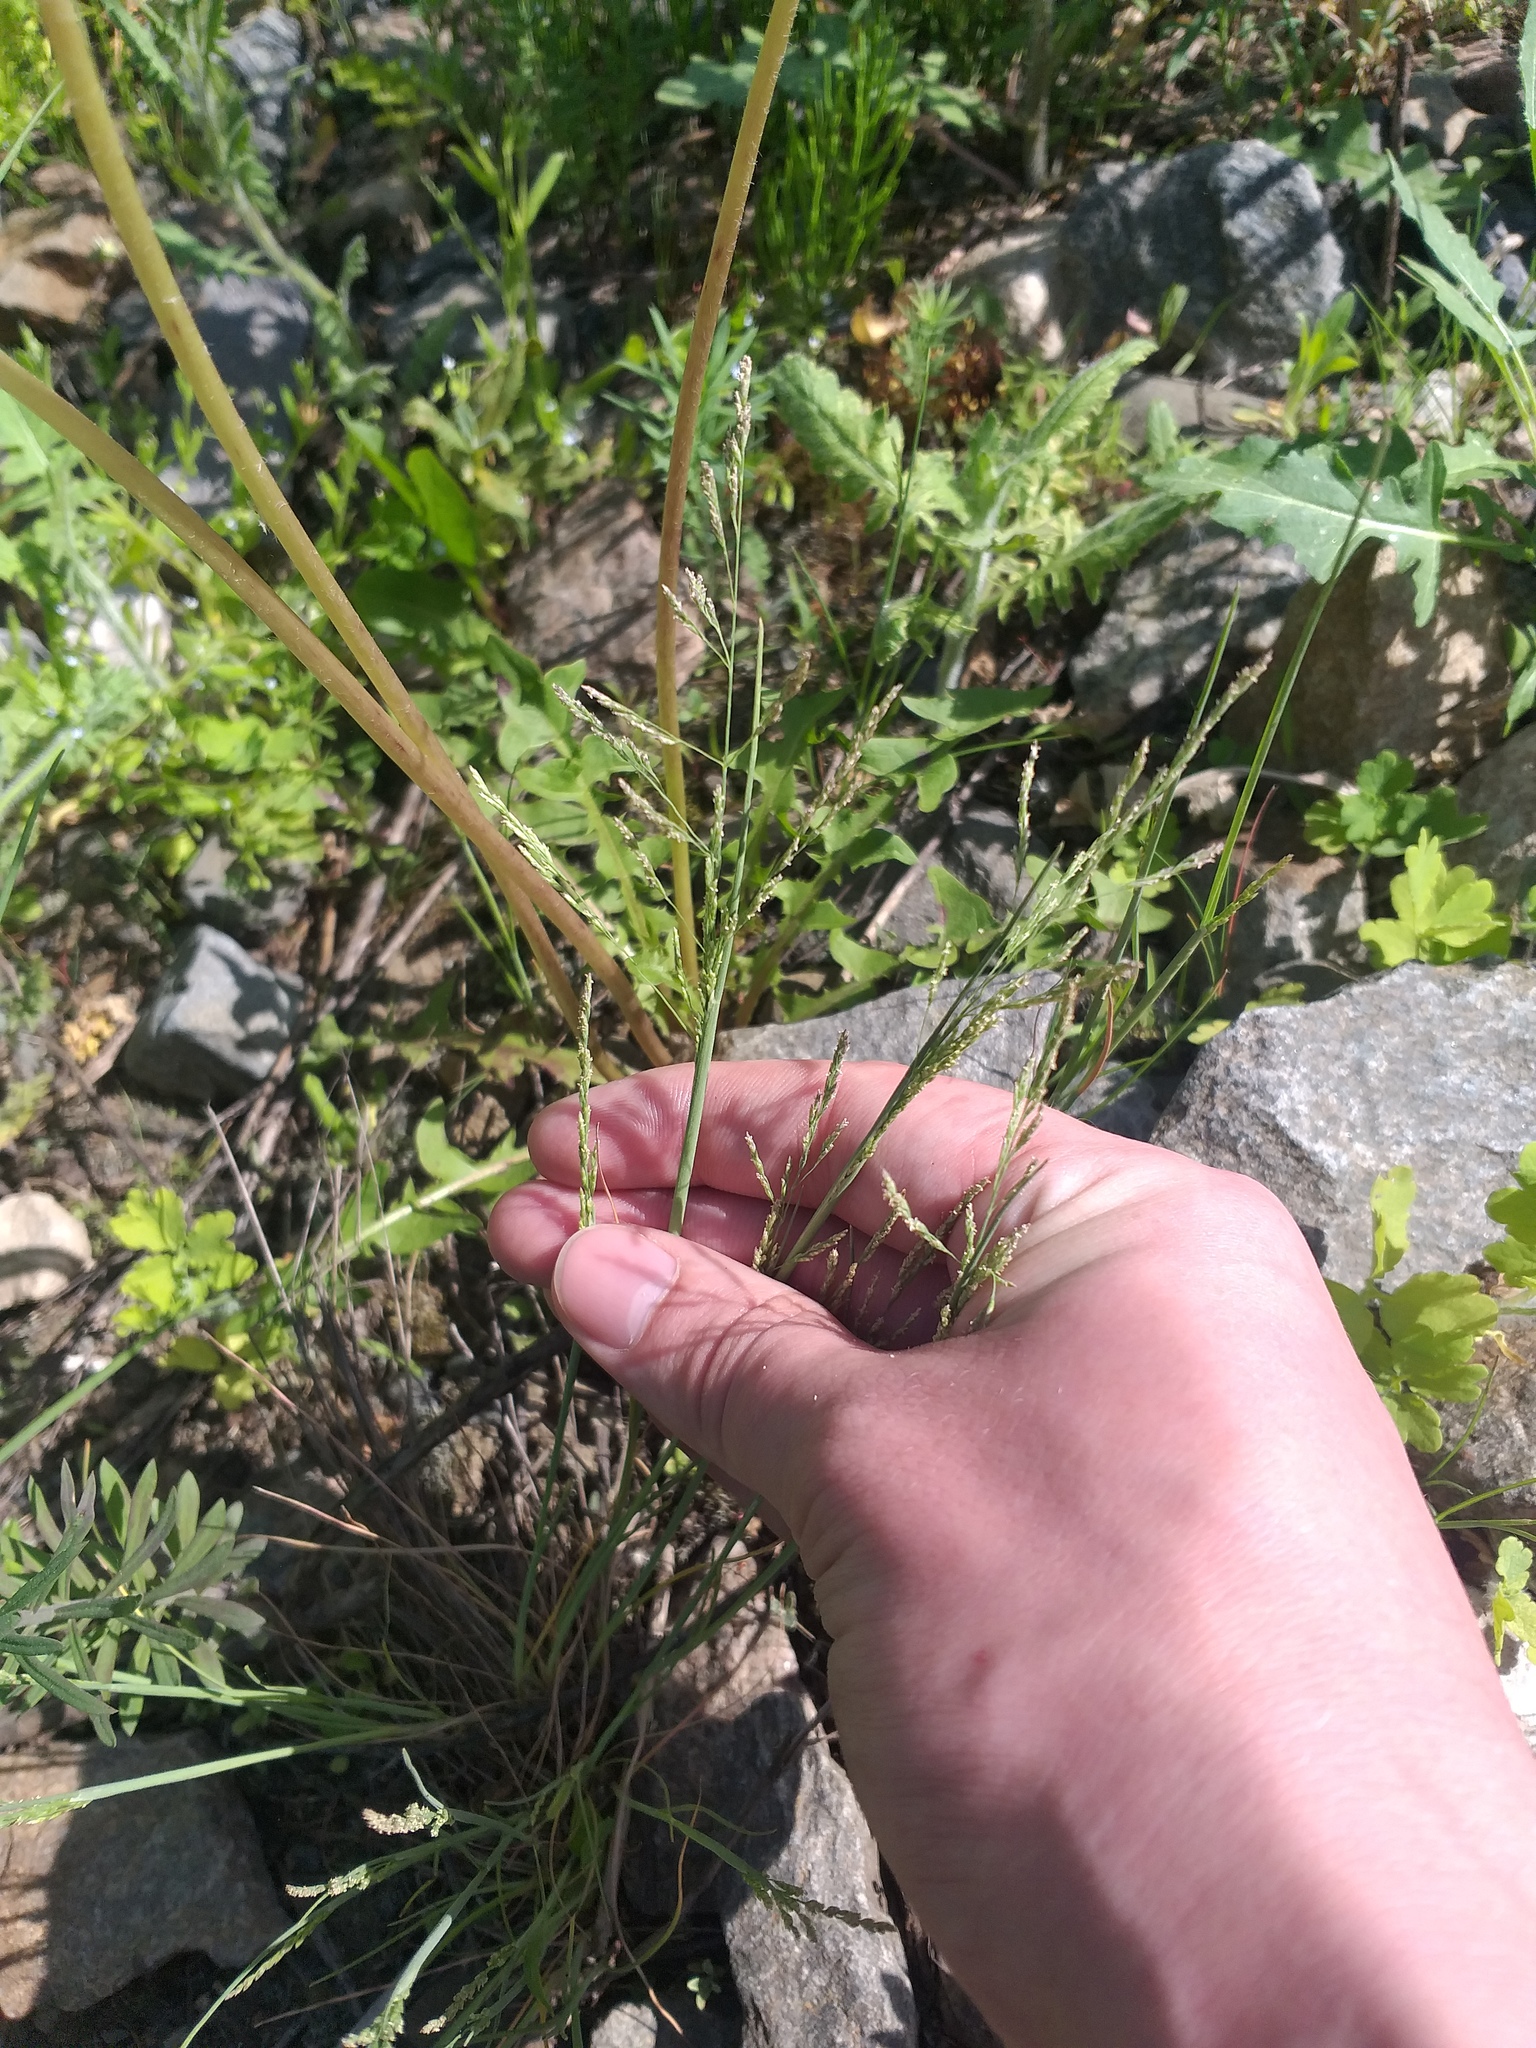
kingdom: Plantae
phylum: Tracheophyta
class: Liliopsida
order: Poales
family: Poaceae
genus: Puccinellia
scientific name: Puccinellia distans
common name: Weeping alkaligrass
